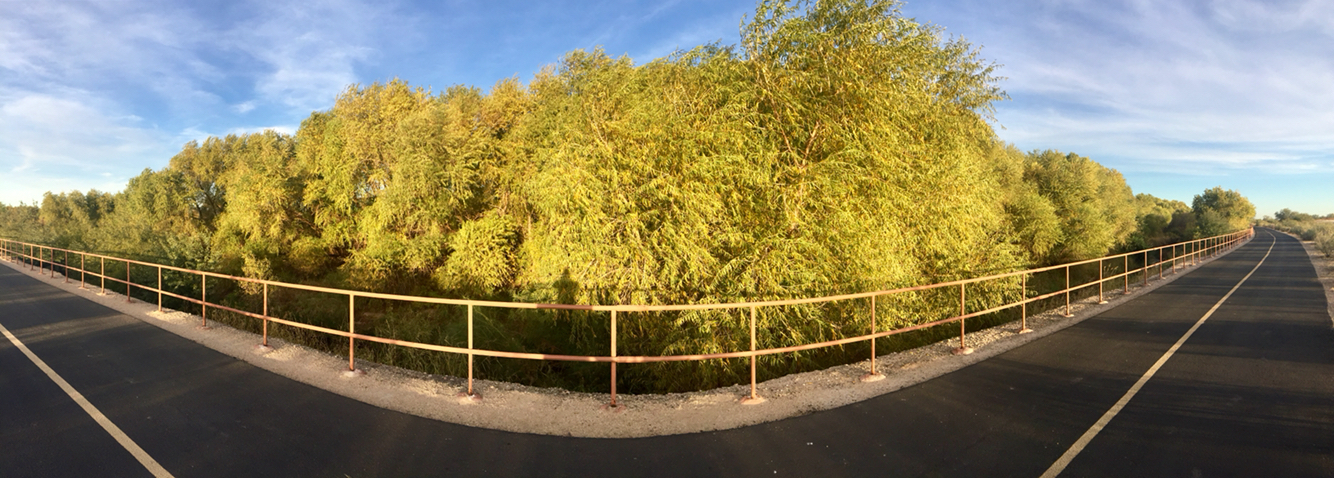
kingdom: Plantae
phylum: Tracheophyta
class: Magnoliopsida
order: Malpighiales
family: Salicaceae
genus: Salix
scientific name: Salix gooddingii
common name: Goodding's willow
